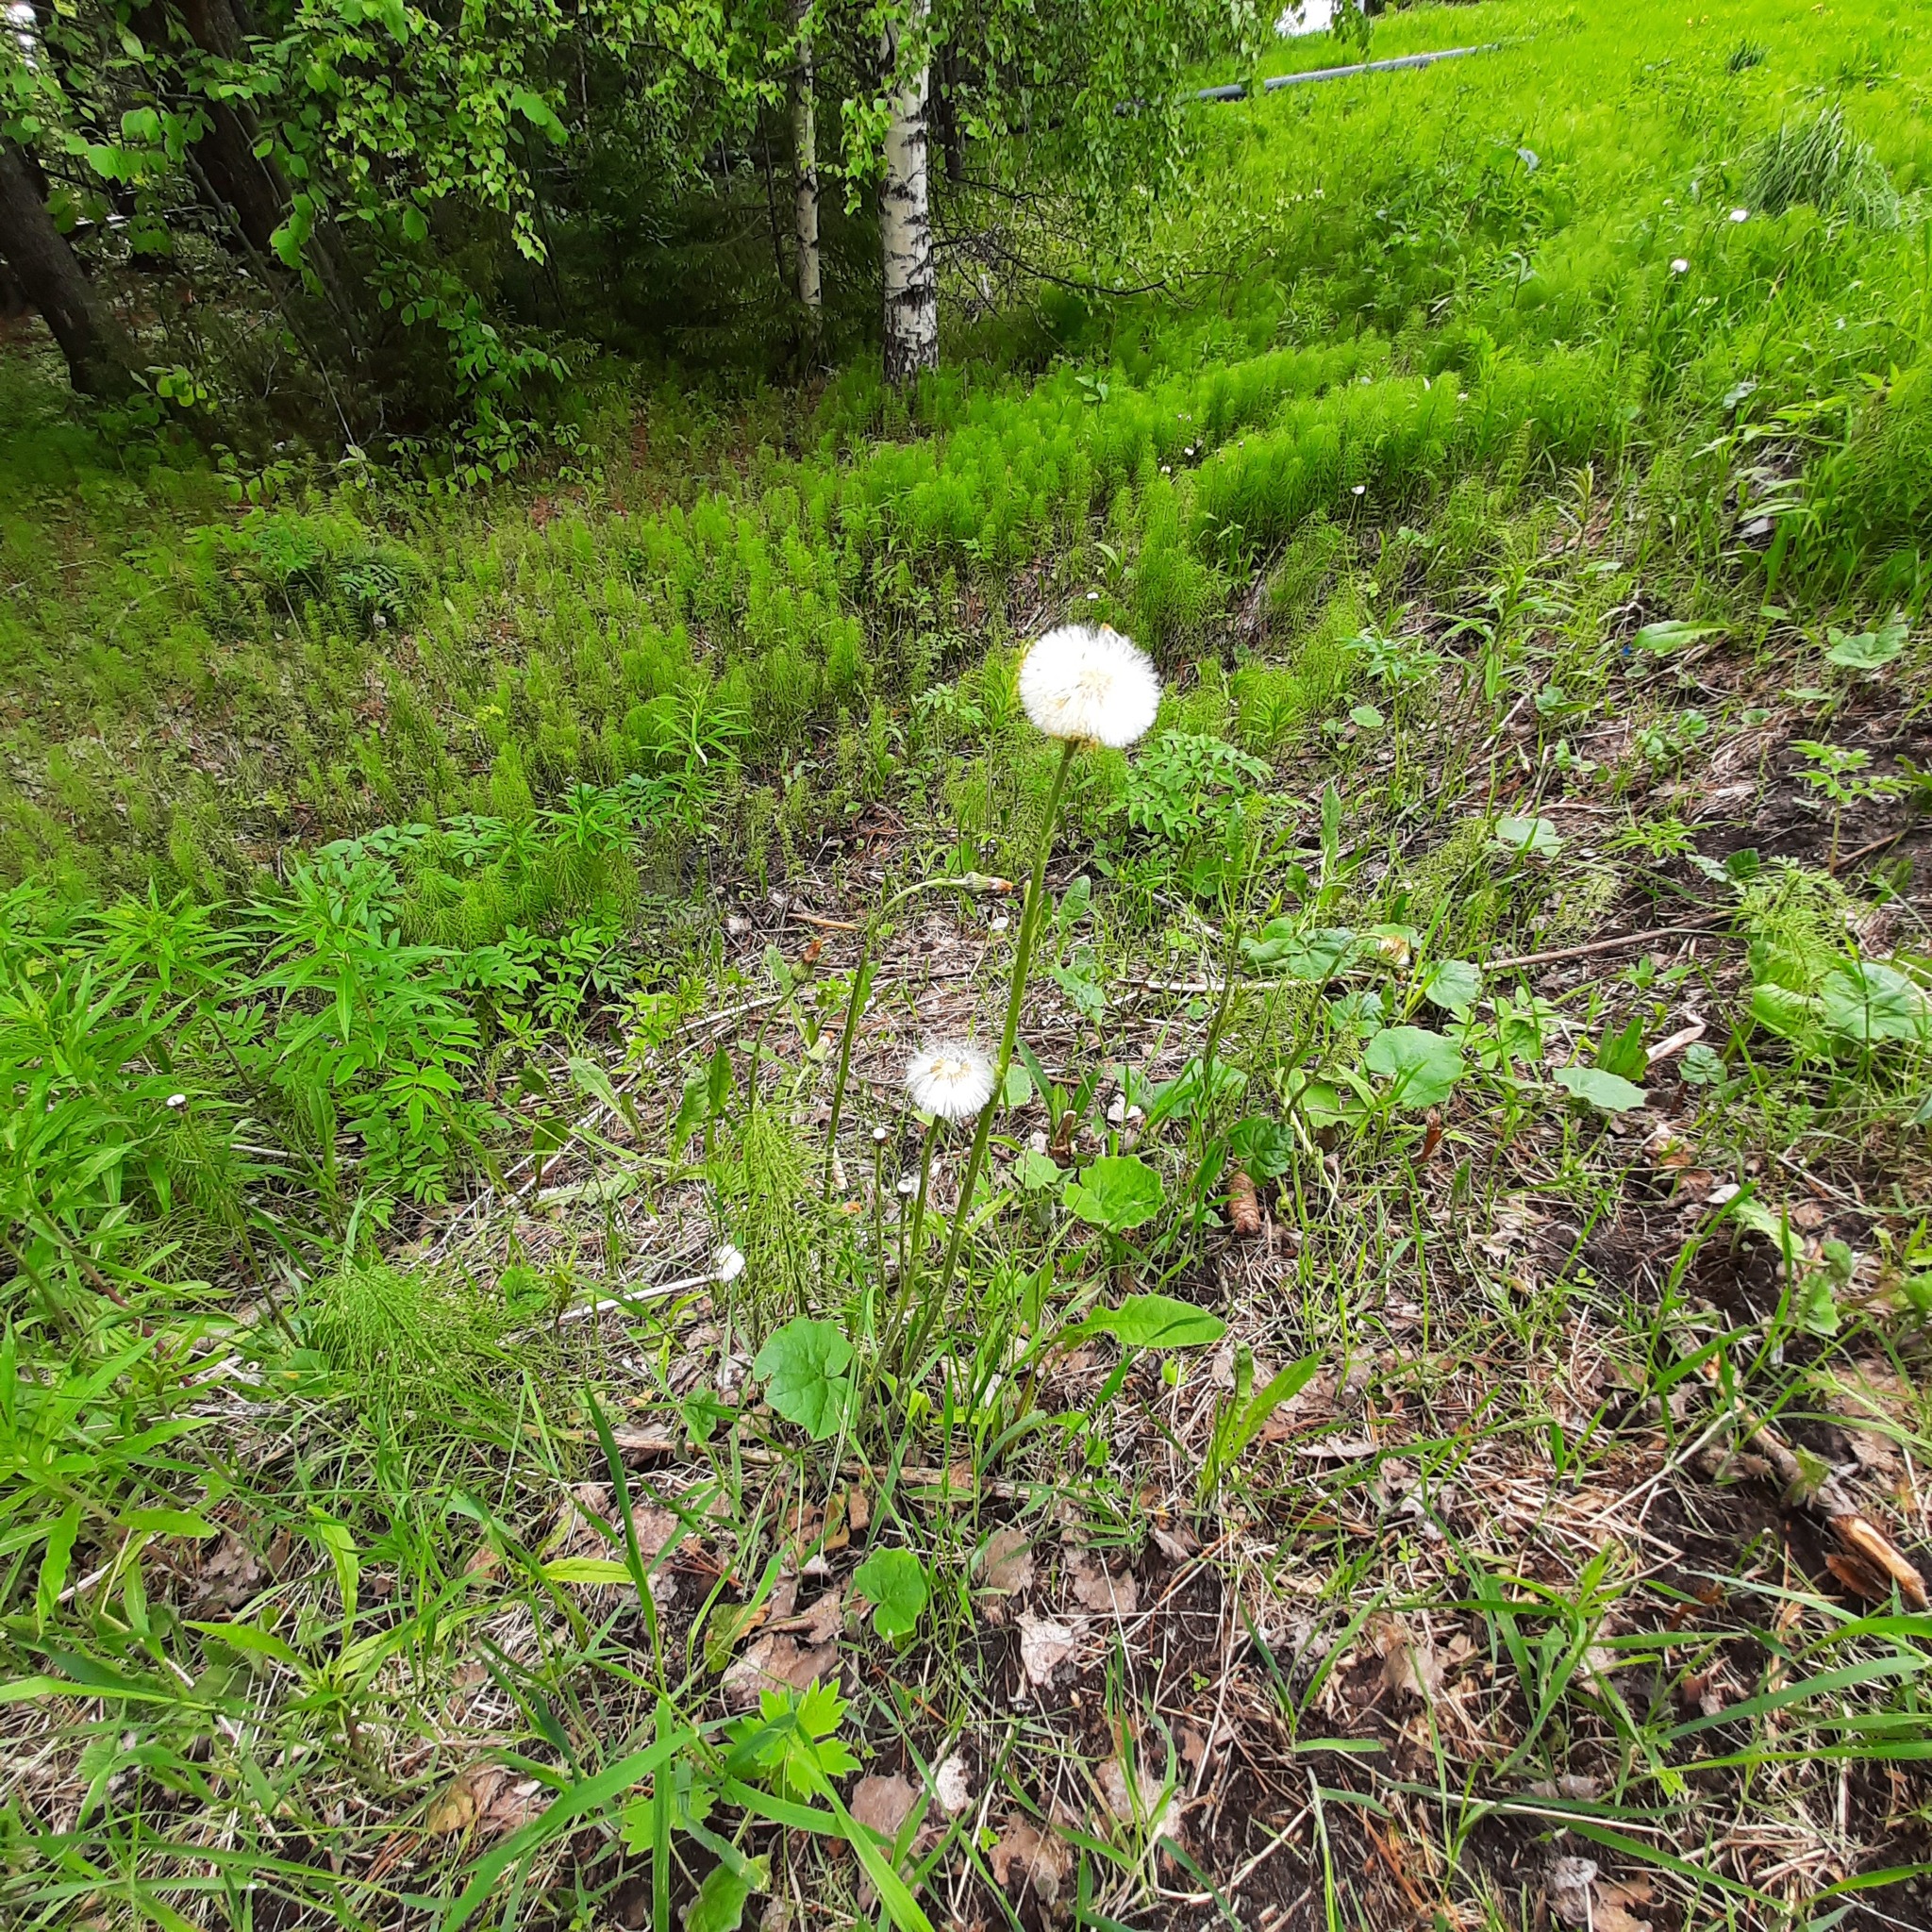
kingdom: Plantae
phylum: Tracheophyta
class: Magnoliopsida
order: Asterales
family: Asteraceae
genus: Tussilago
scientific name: Tussilago farfara
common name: Coltsfoot
